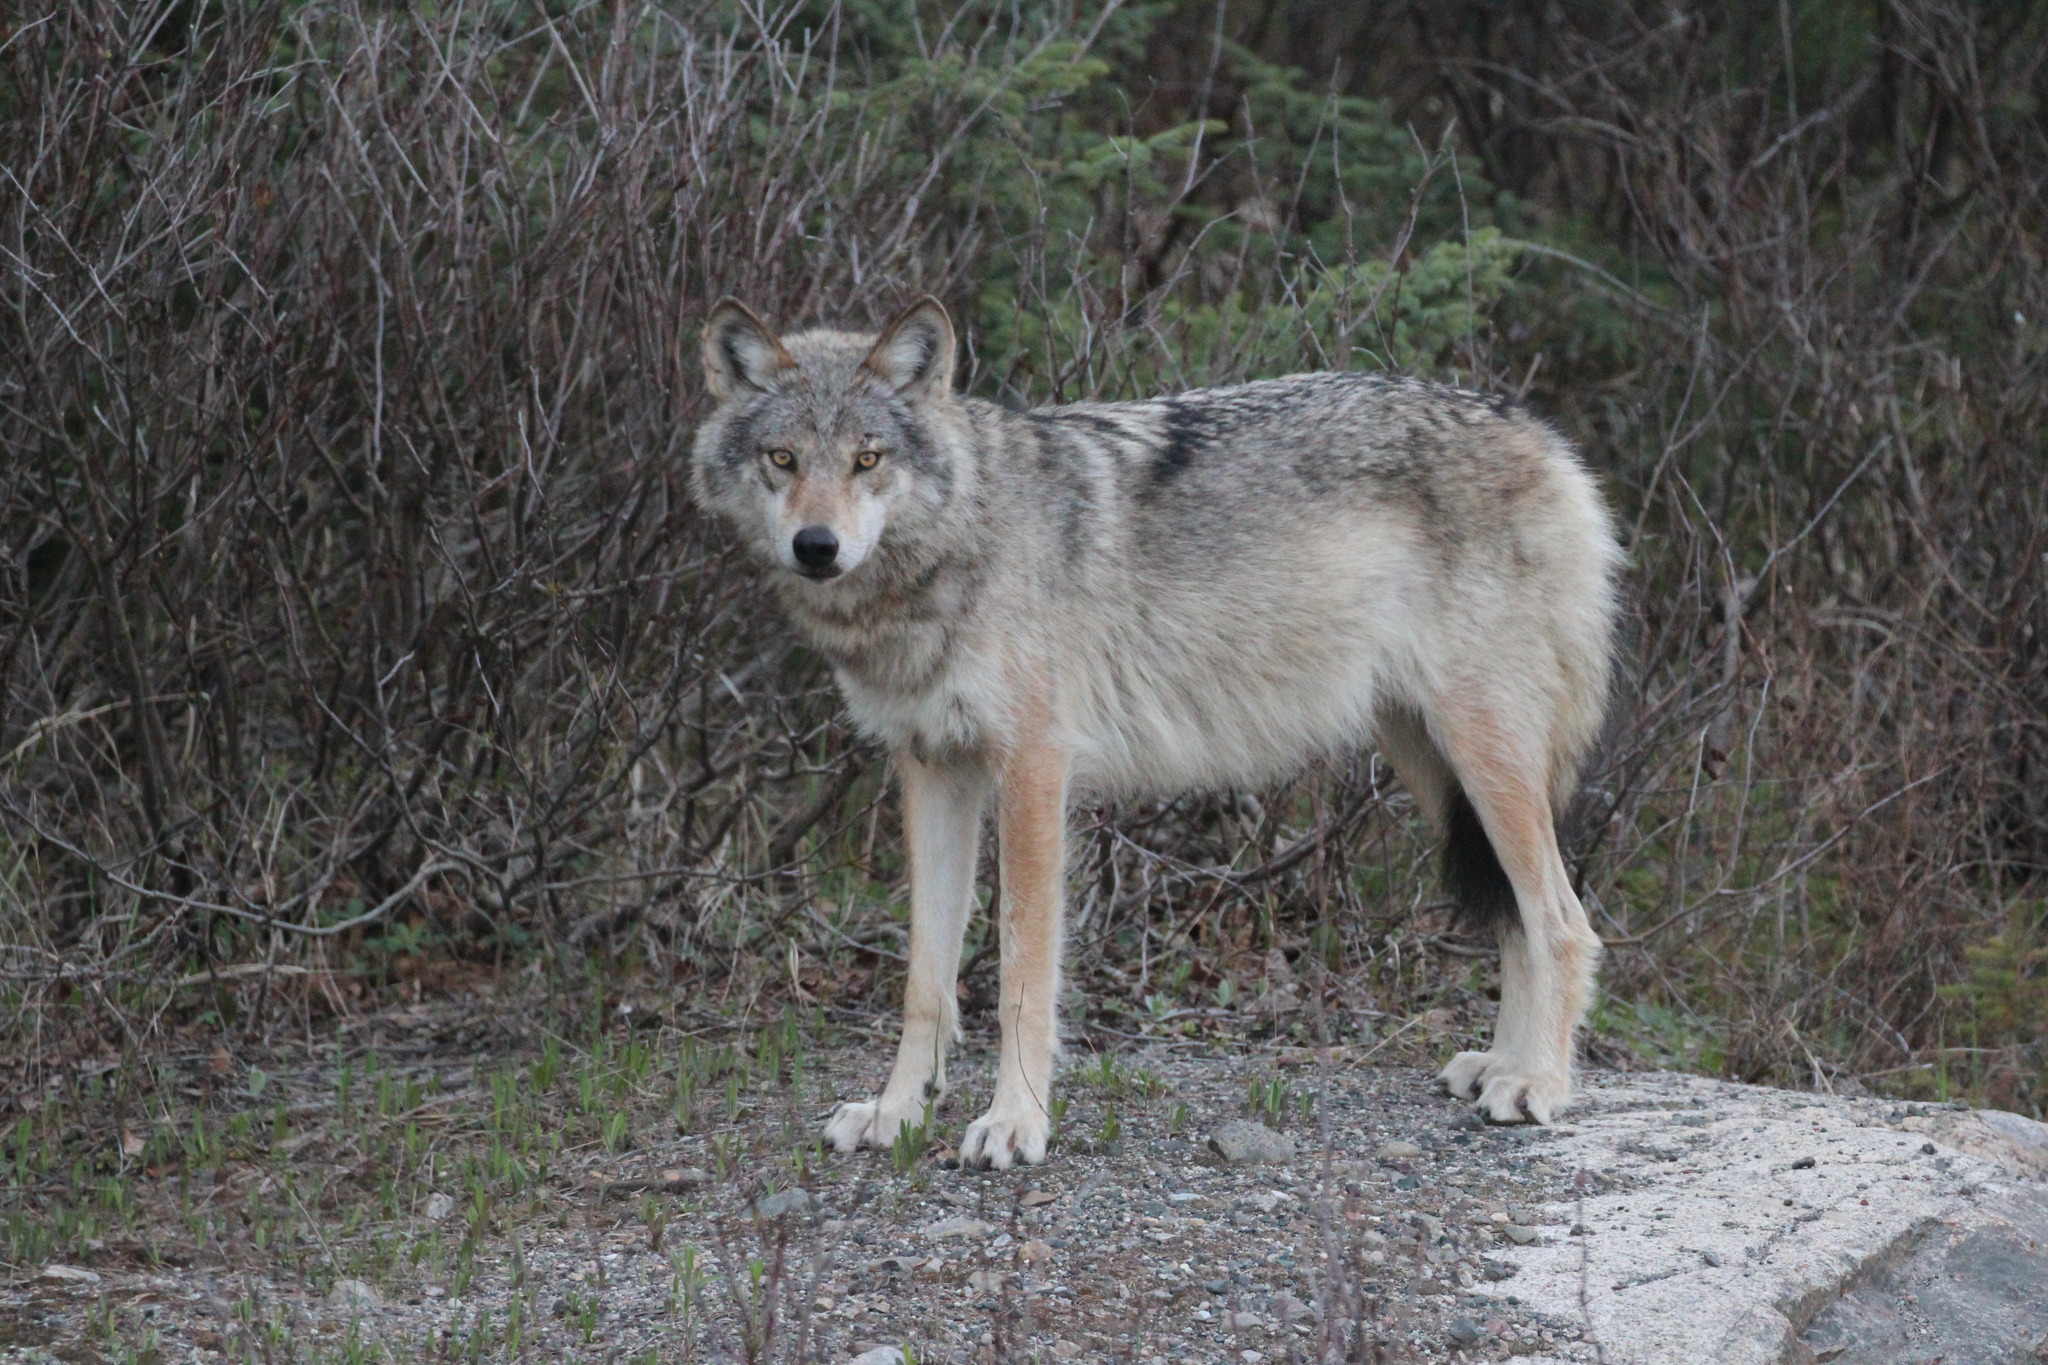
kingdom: Animalia
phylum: Chordata
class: Mammalia
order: Carnivora
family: Canidae
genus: Canis
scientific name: Canis lupus
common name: Gray wolf
